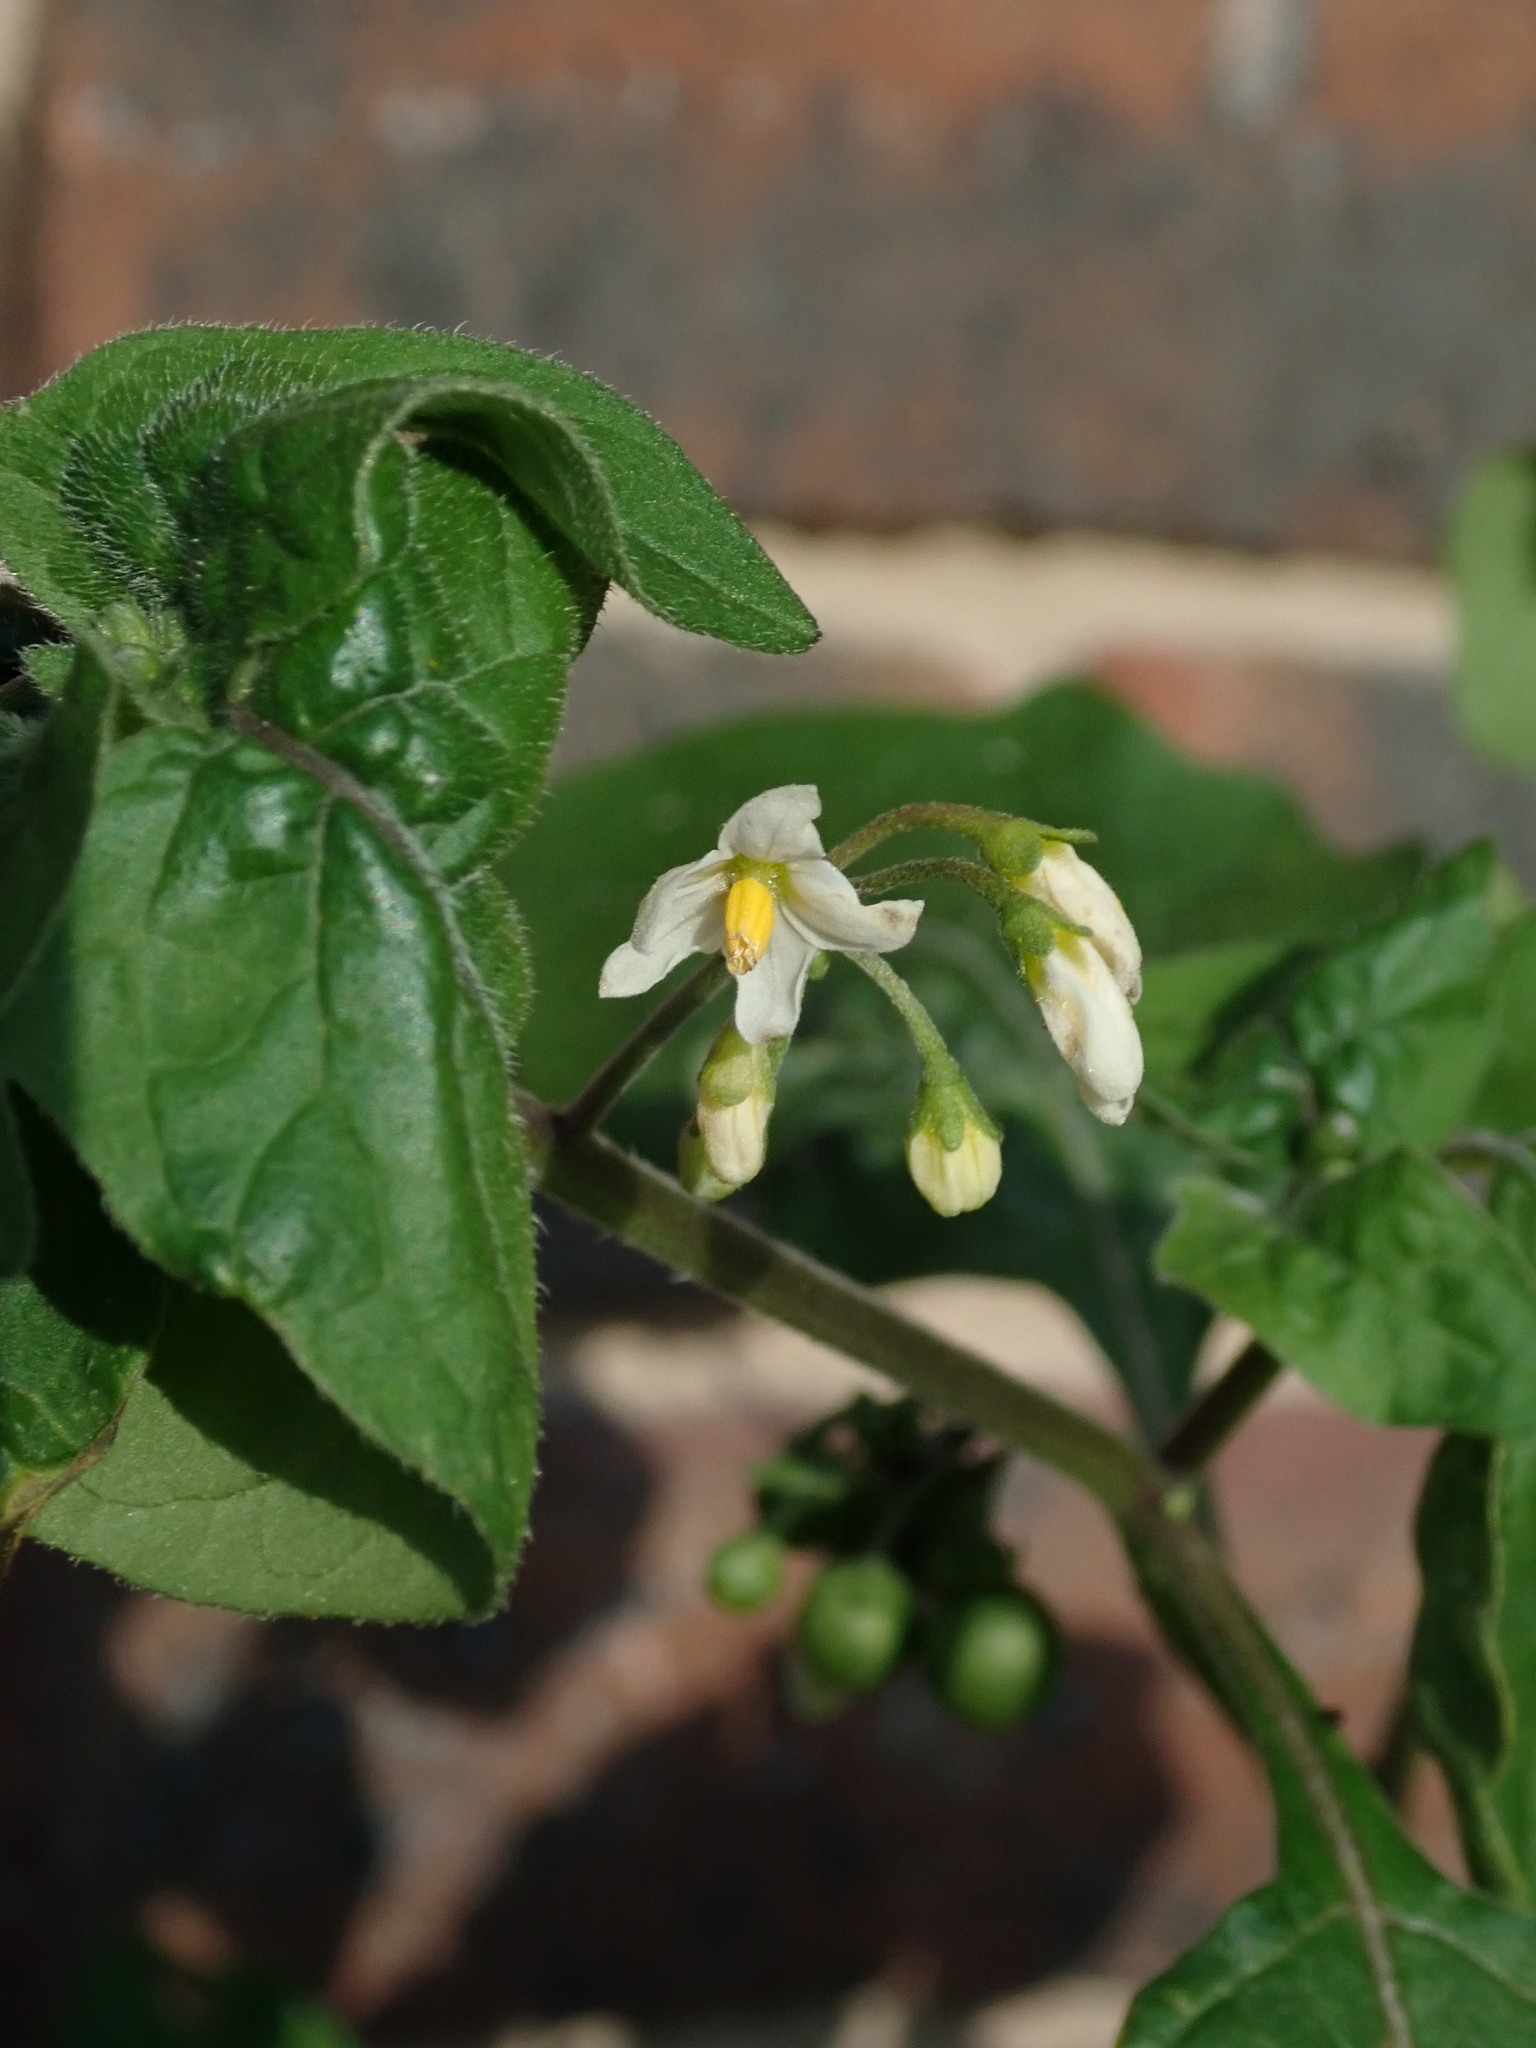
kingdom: Plantae
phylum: Tracheophyta
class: Magnoliopsida
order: Solanales
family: Solanaceae
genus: Solanum
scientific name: Solanum nigrum
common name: Black nightshade
